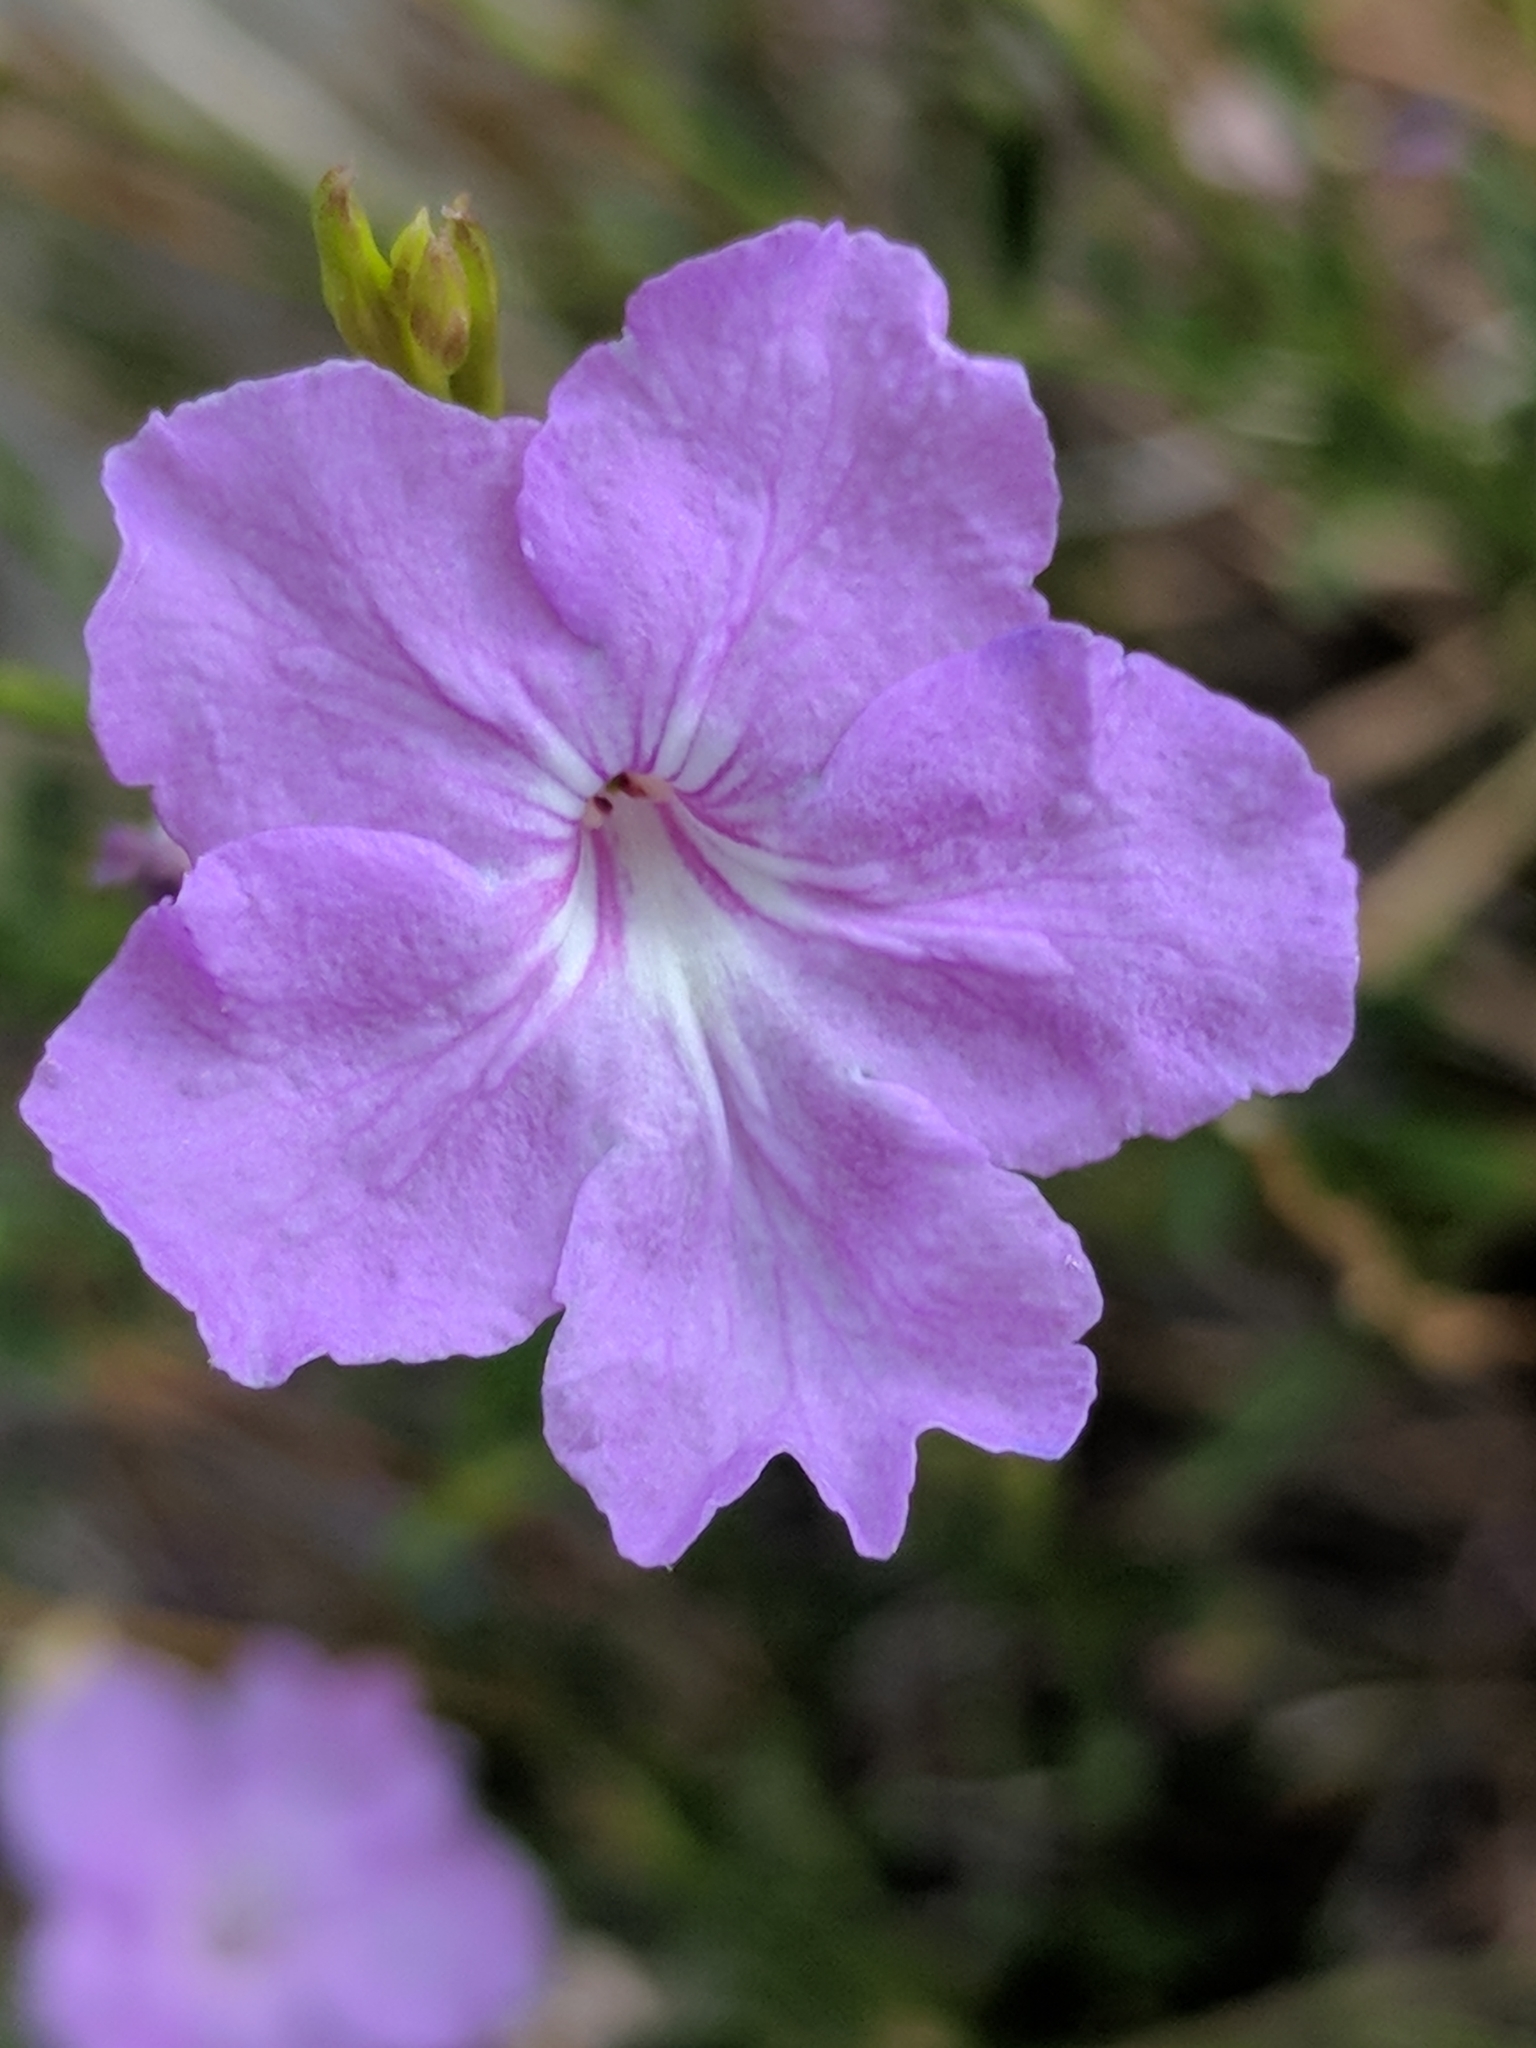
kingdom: Plantae
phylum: Tracheophyta
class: Magnoliopsida
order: Lamiales
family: Verbenaceae
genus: Bouchea
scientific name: Bouchea linifolia
